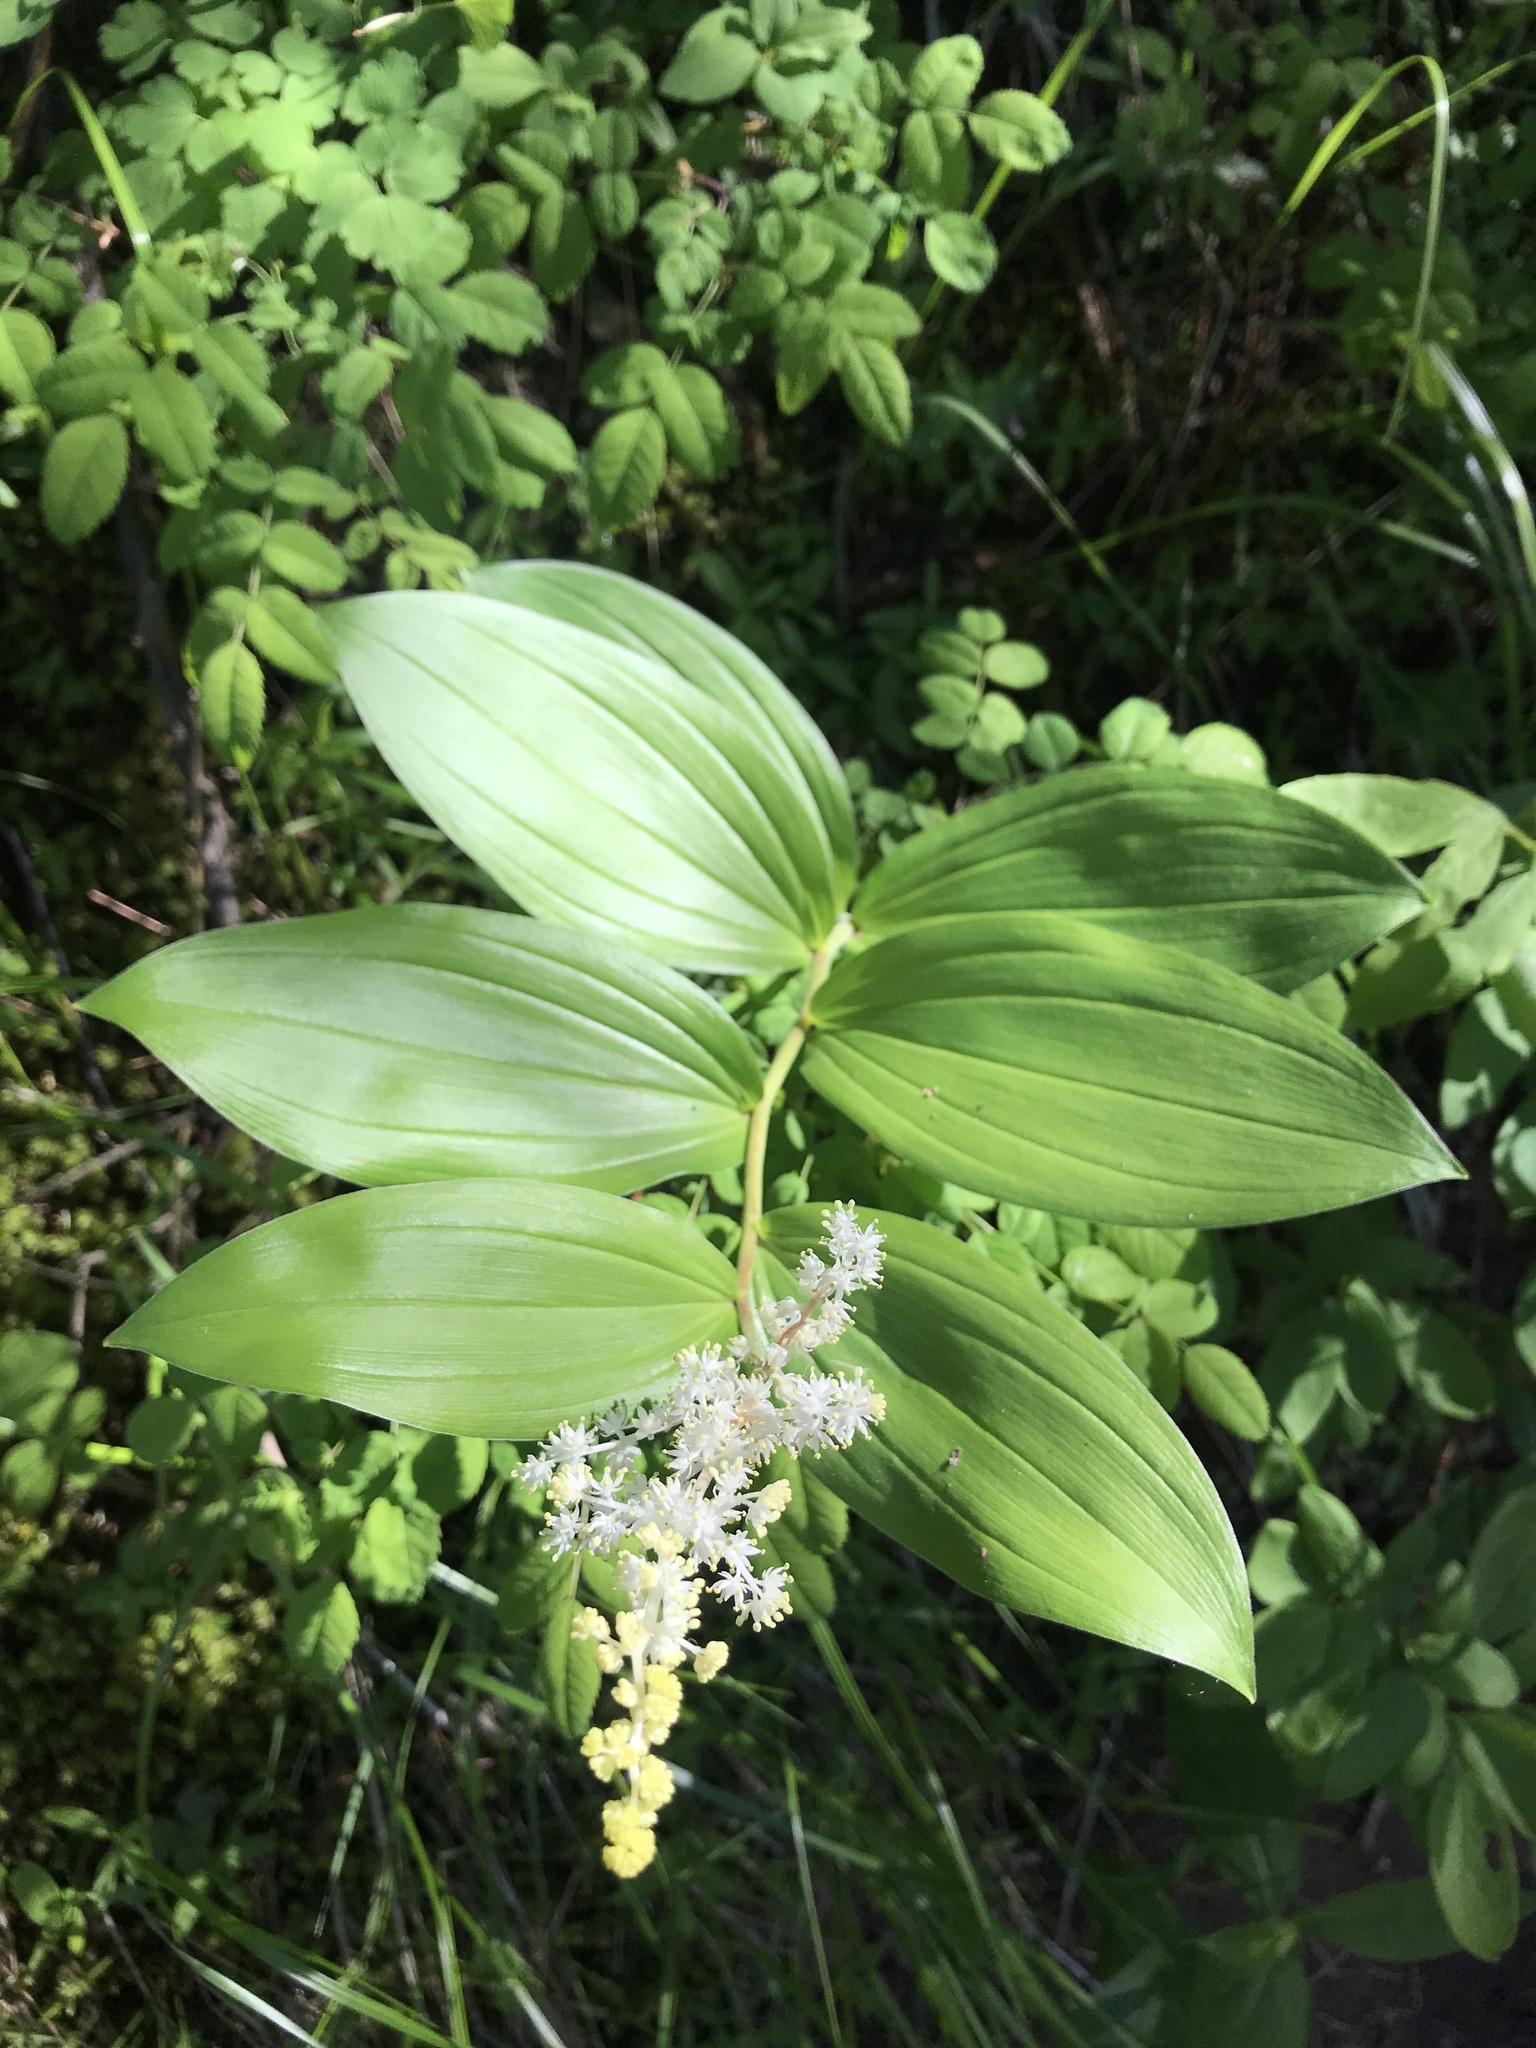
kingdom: Plantae
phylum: Tracheophyta
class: Liliopsida
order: Asparagales
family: Asparagaceae
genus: Maianthemum
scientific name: Maianthemum racemosum
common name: False spikenard
